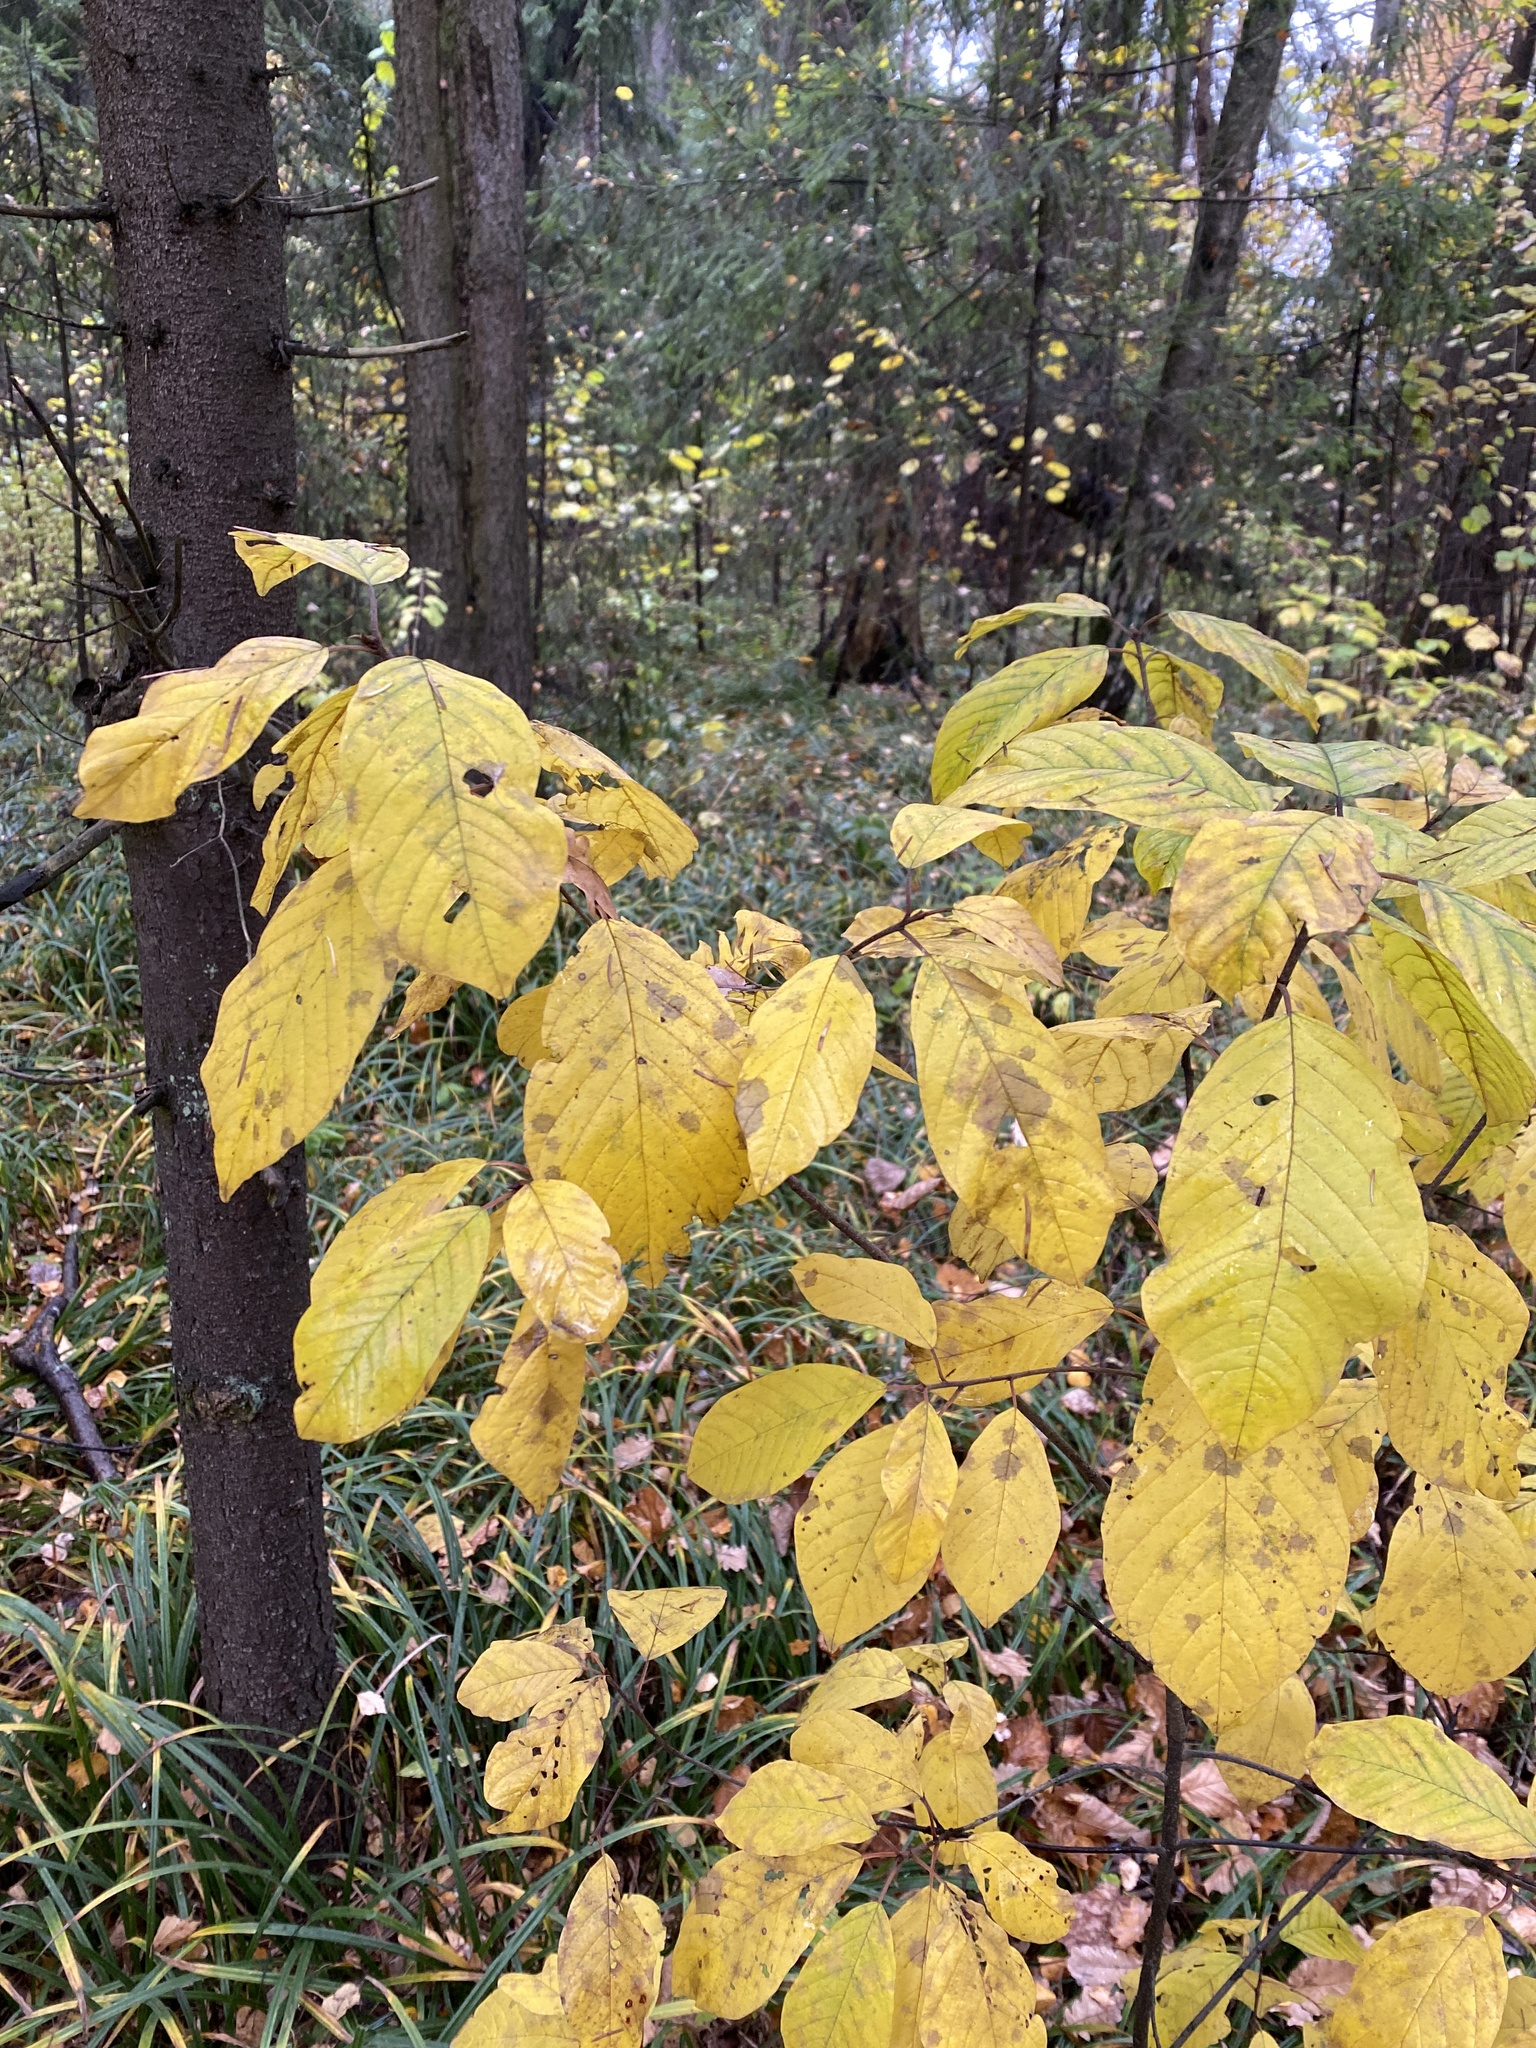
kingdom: Plantae
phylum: Tracheophyta
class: Magnoliopsida
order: Rosales
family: Rhamnaceae
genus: Frangula
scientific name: Frangula alnus
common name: Alder buckthorn
